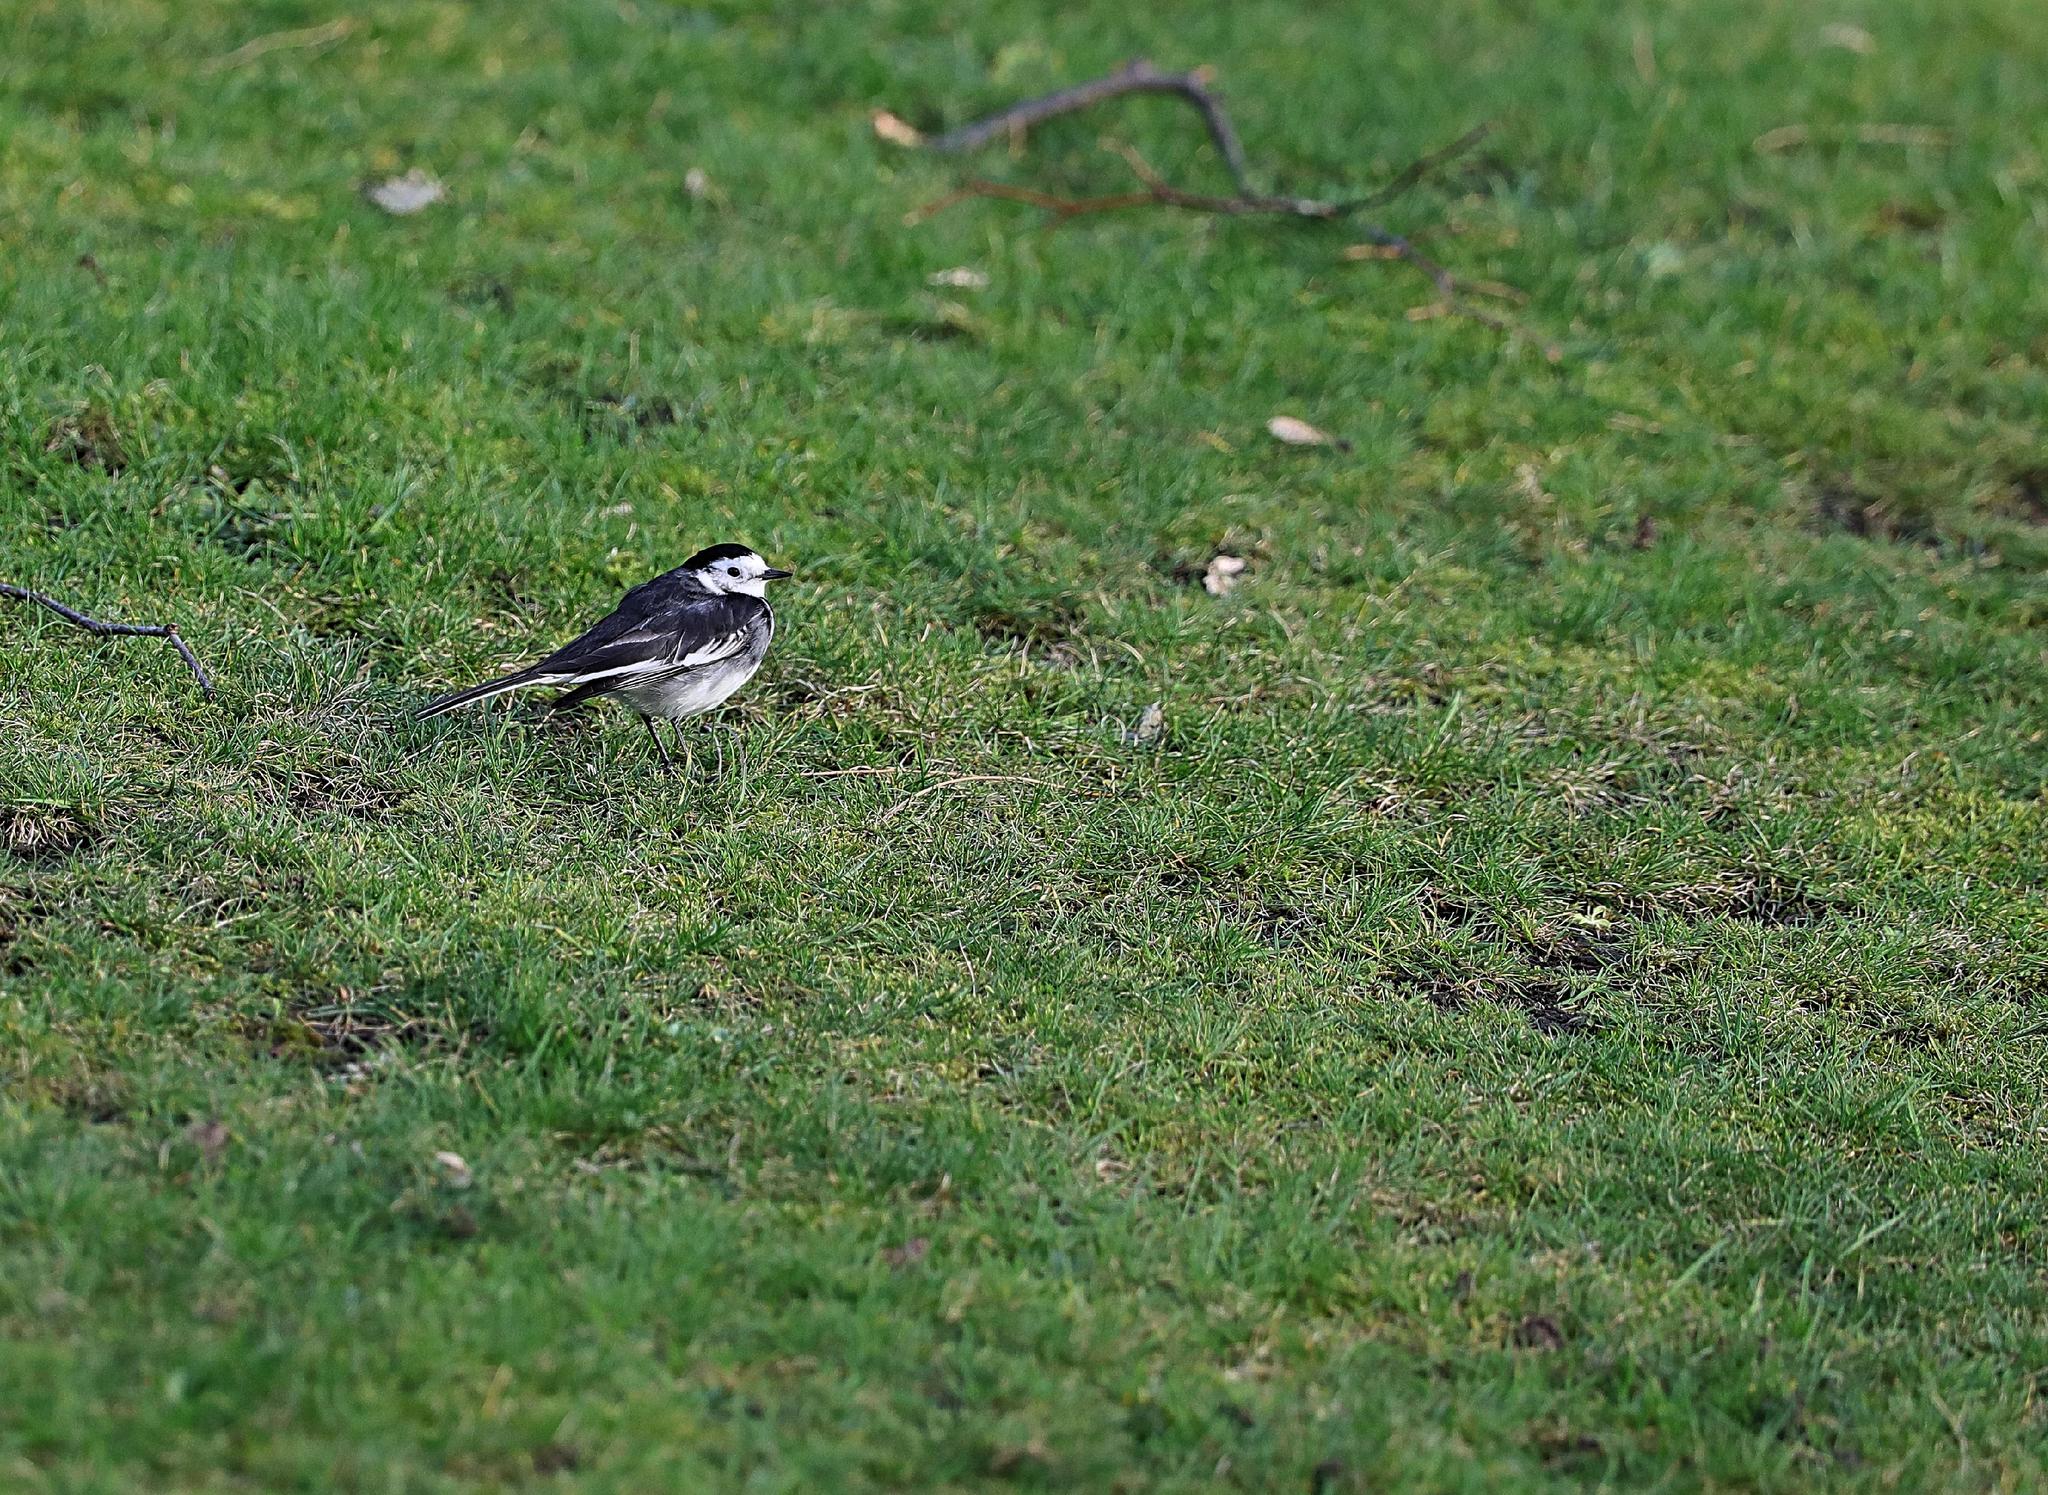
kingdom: Animalia
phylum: Chordata
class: Aves
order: Passeriformes
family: Motacillidae
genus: Motacilla
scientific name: Motacilla alba
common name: White wagtail
